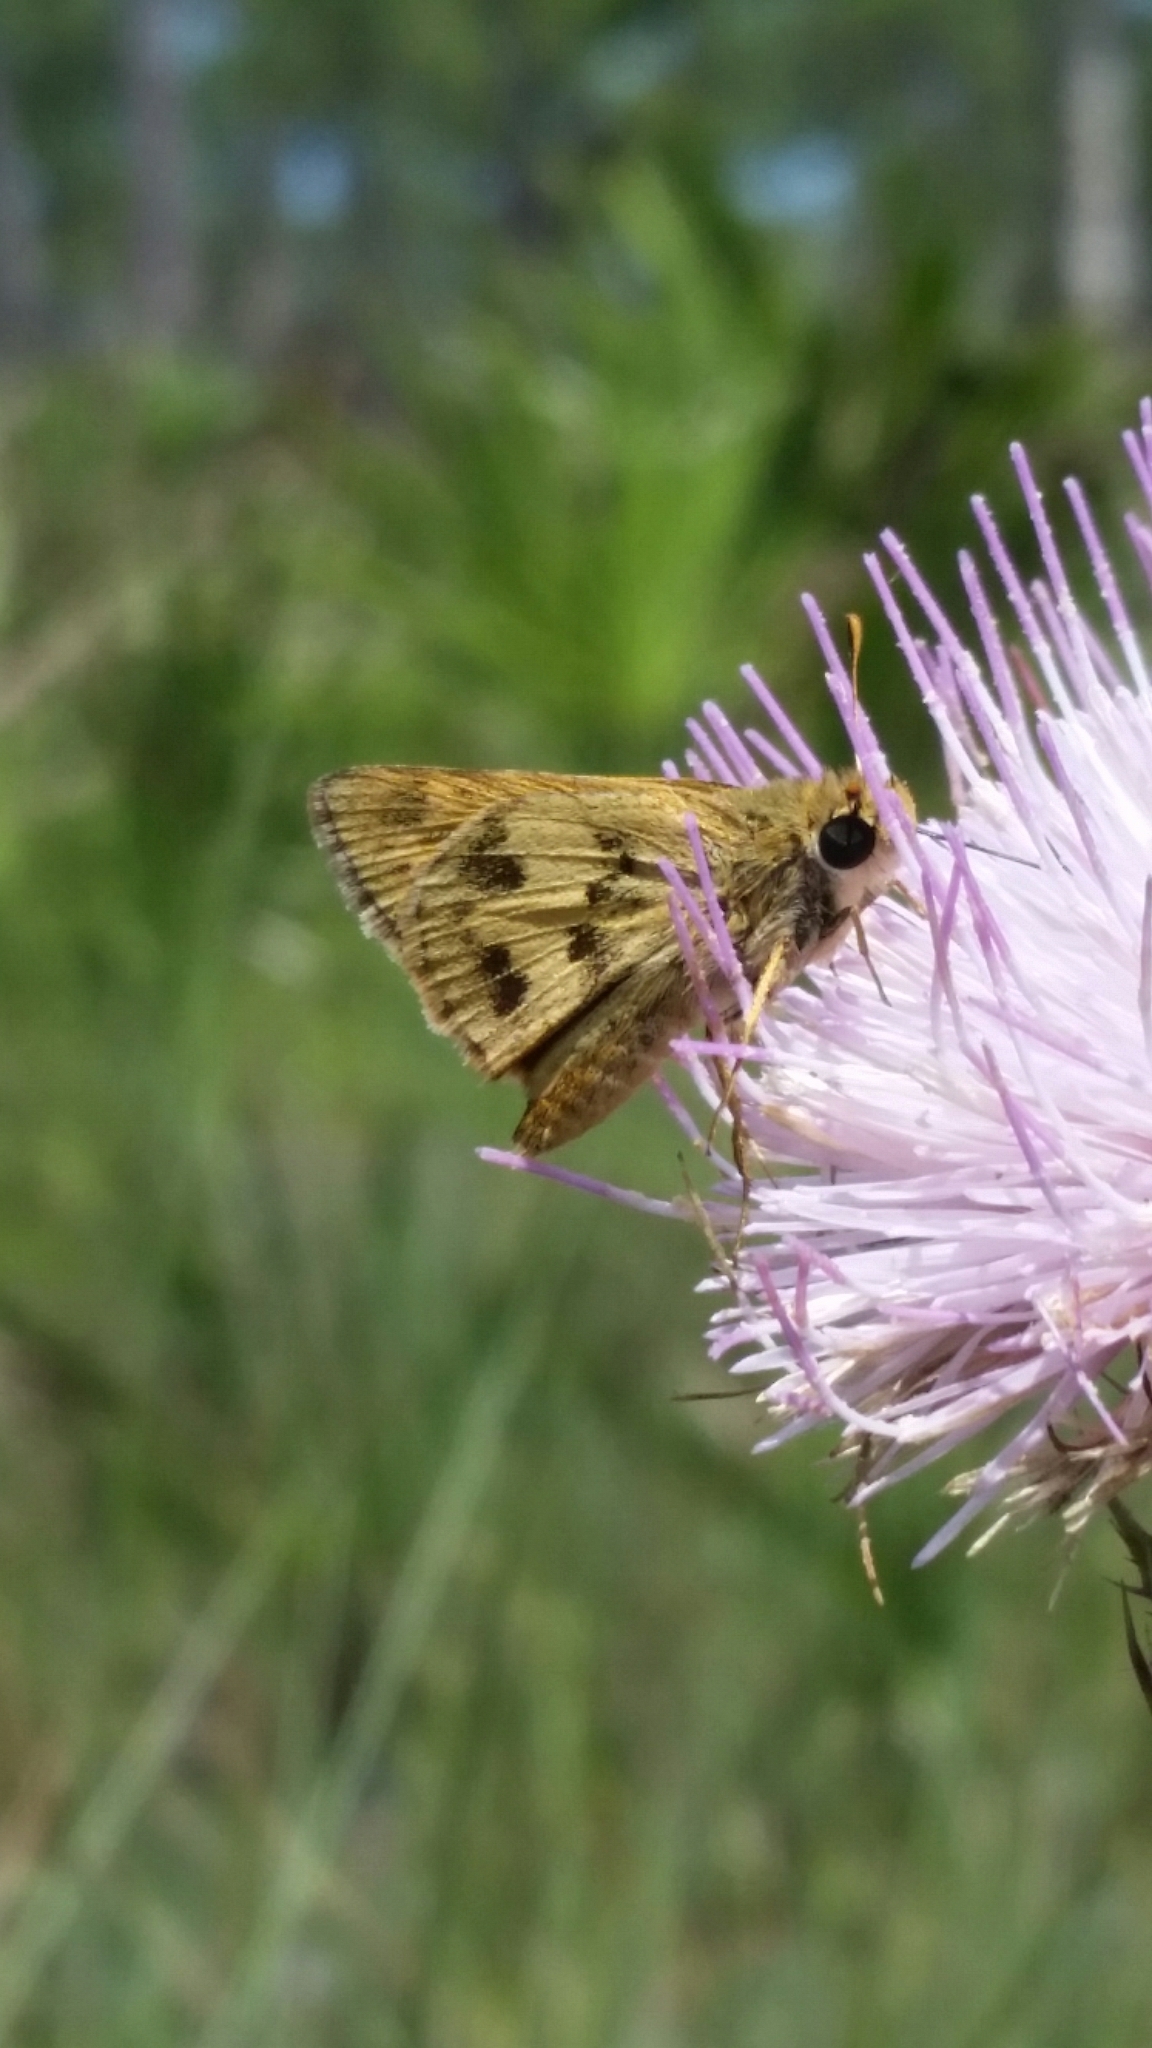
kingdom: Animalia
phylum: Arthropoda
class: Insecta
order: Lepidoptera
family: Hesperiidae
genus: Polites
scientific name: Polites vibex
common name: Whirlabout
